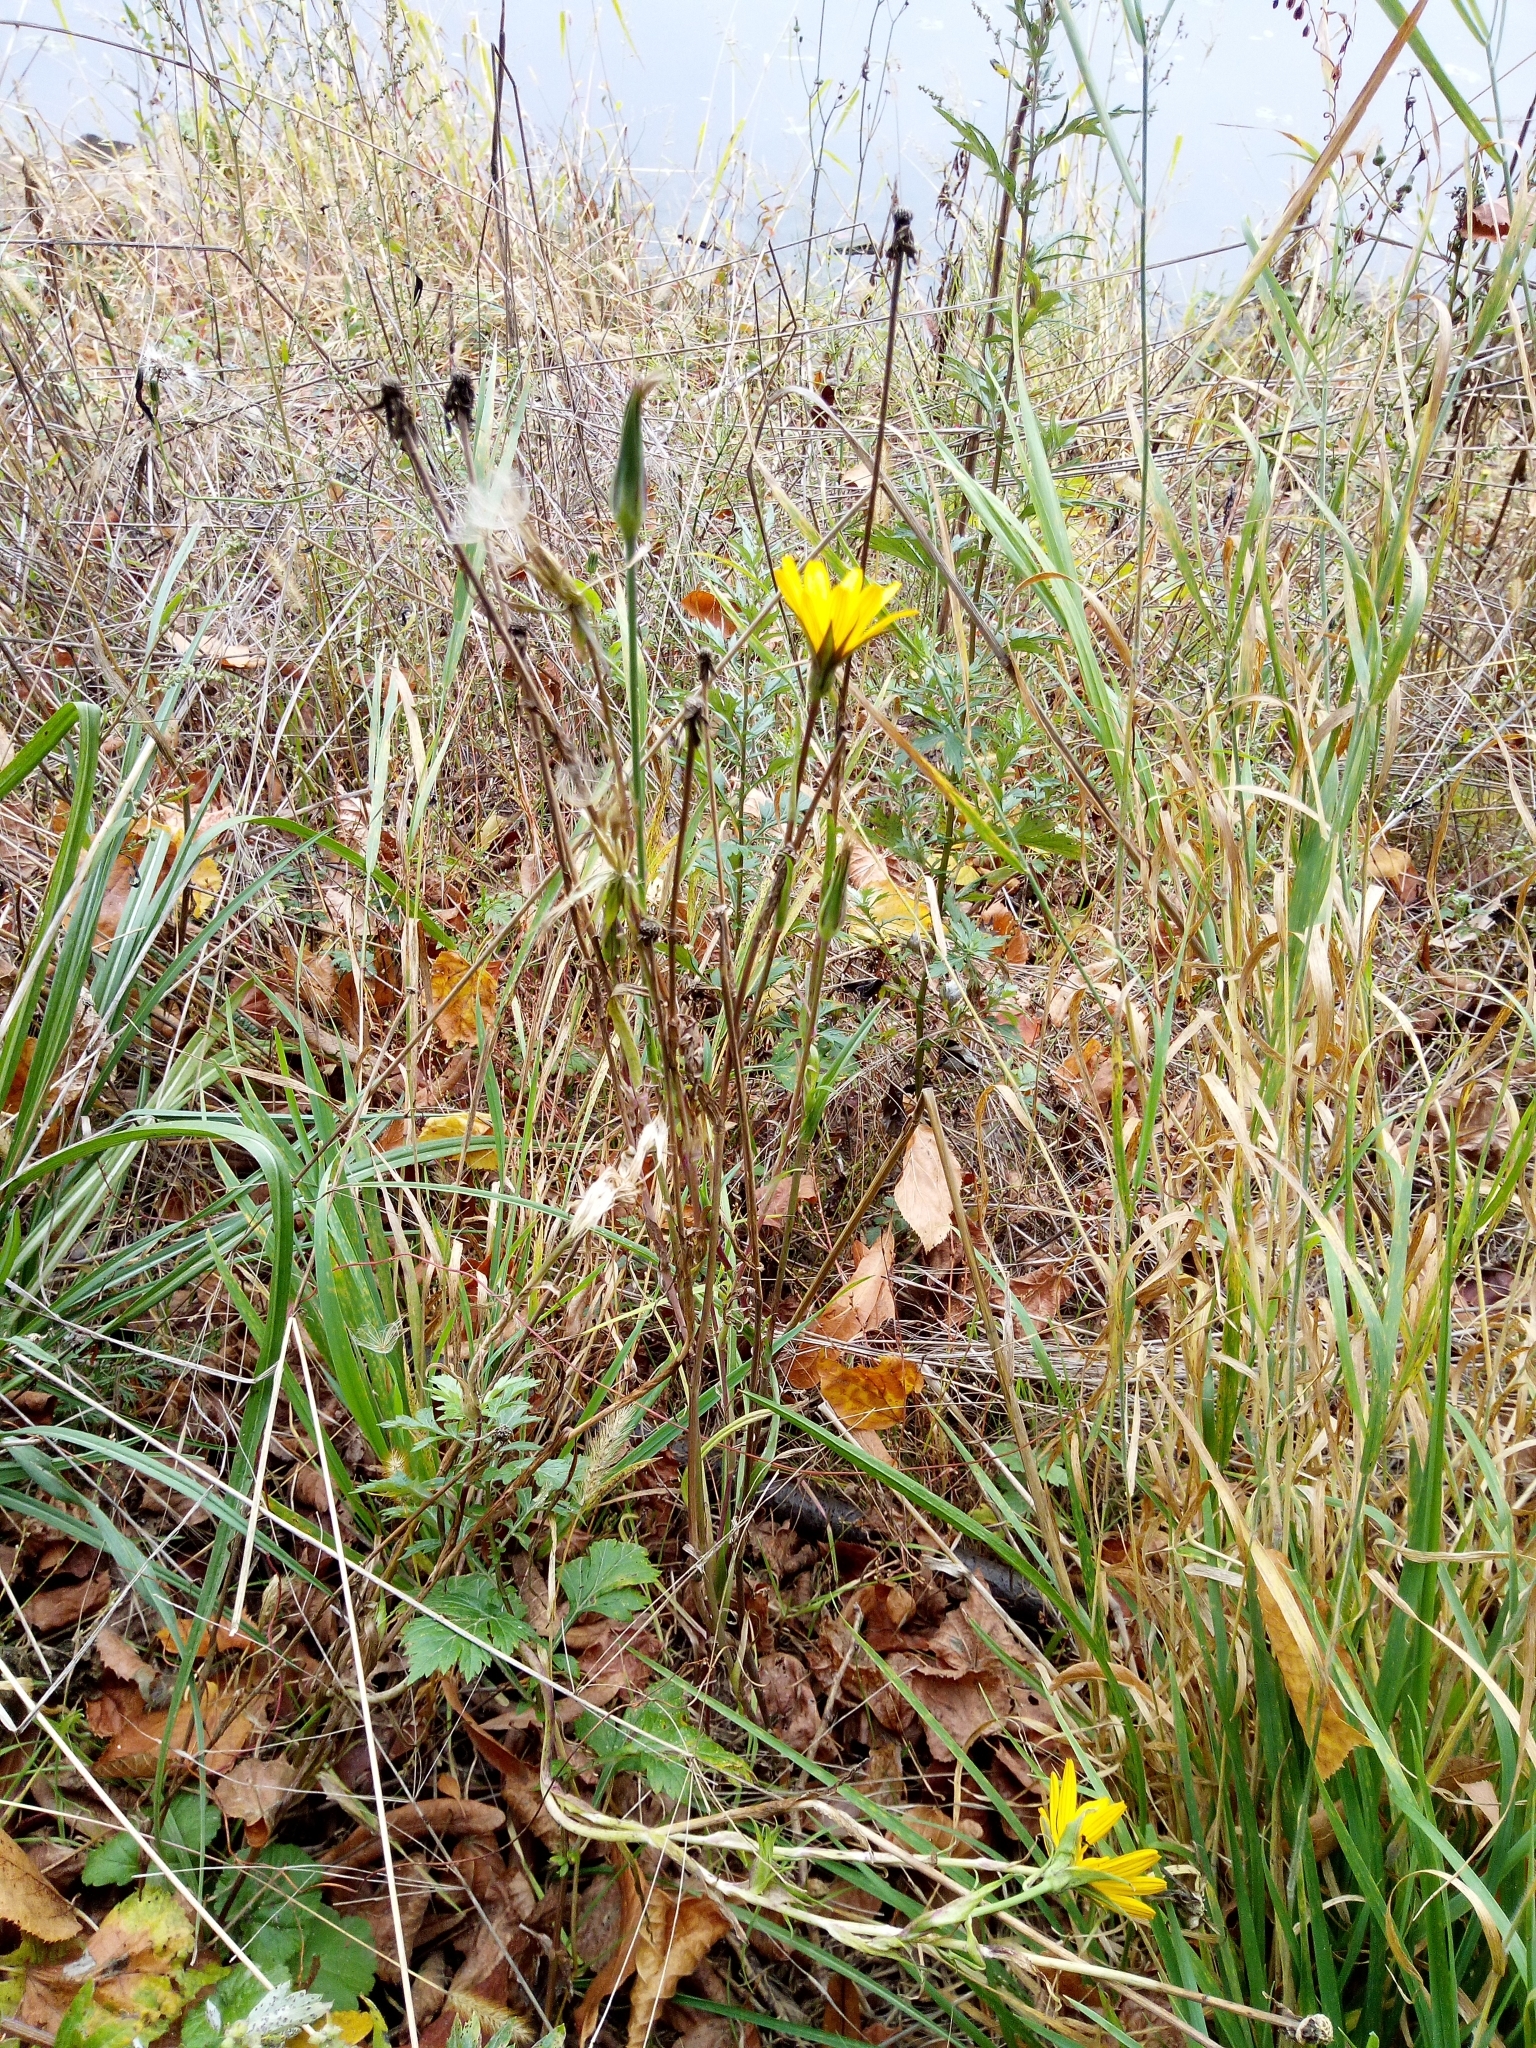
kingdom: Plantae
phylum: Tracheophyta
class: Magnoliopsida
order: Asterales
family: Asteraceae
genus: Tragopogon
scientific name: Tragopogon orientalis
